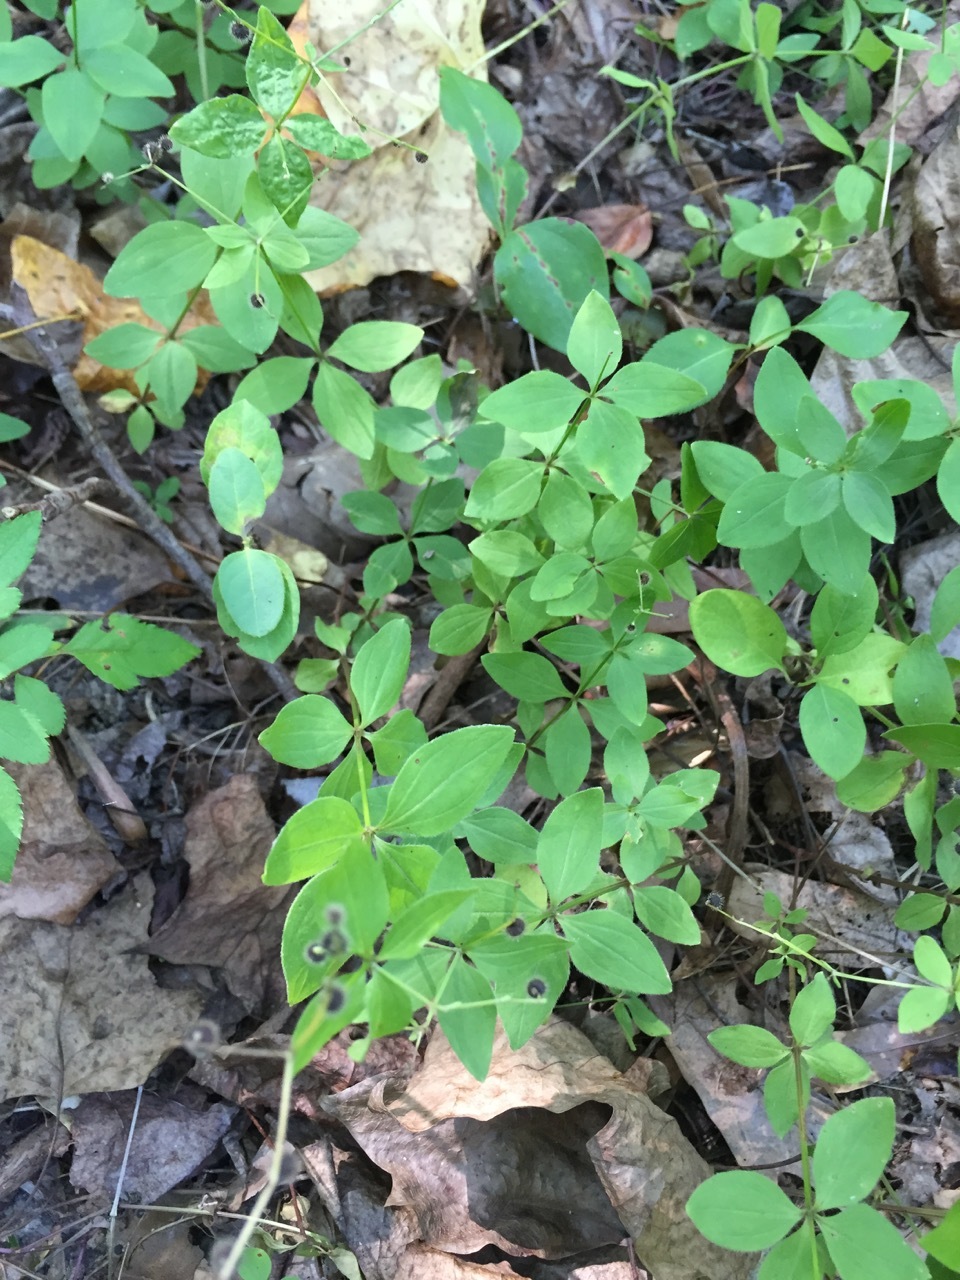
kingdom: Plantae
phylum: Tracheophyta
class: Magnoliopsida
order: Gentianales
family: Rubiaceae
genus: Galium
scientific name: Galium circaezans
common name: Forest bedstraw
